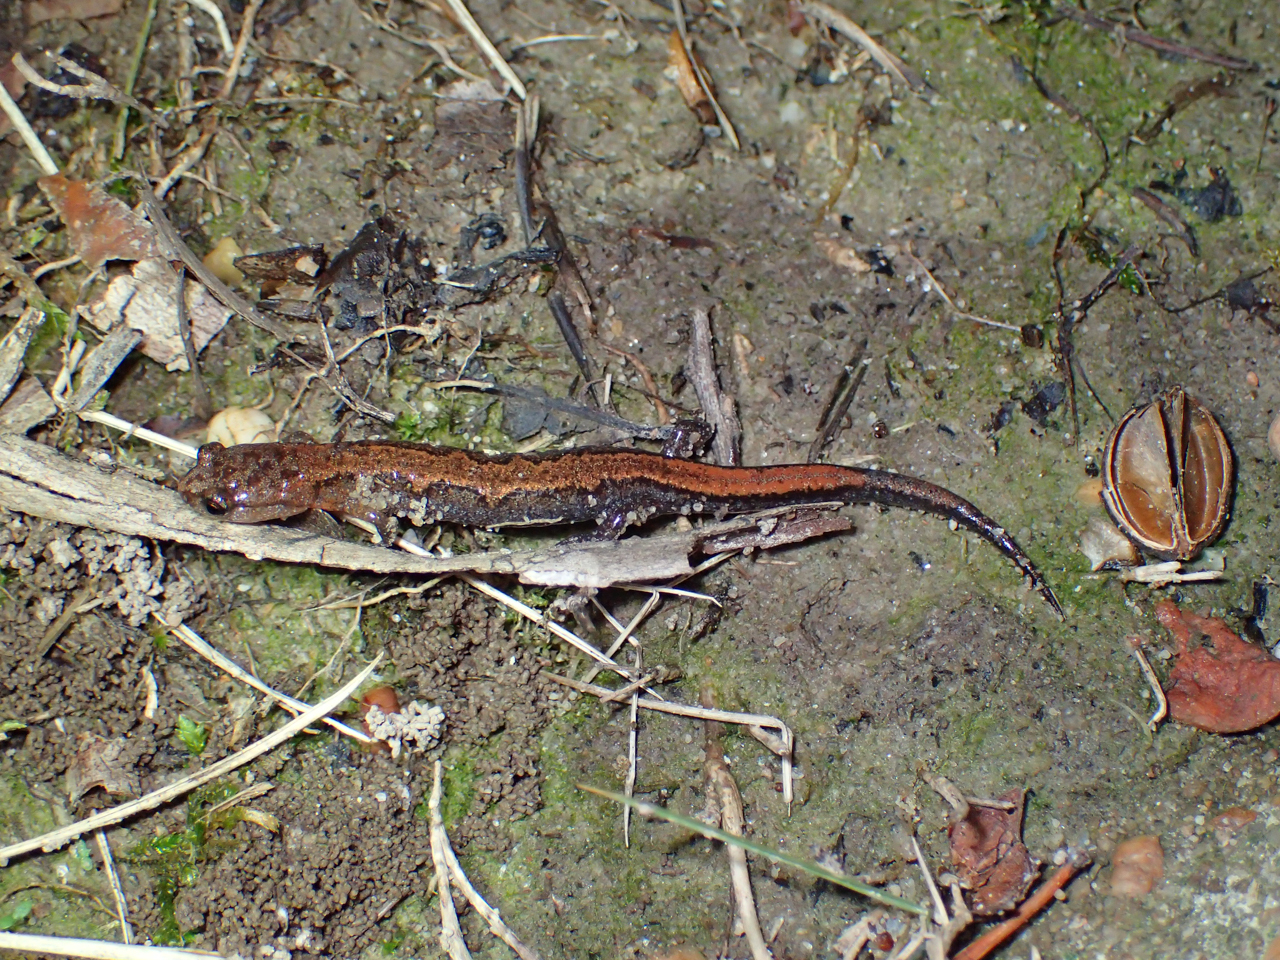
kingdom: Animalia
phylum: Chordata
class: Amphibia
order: Caudata
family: Plethodontidae
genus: Plethodon
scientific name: Plethodon ventralis
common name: Southern zigzag salamander
